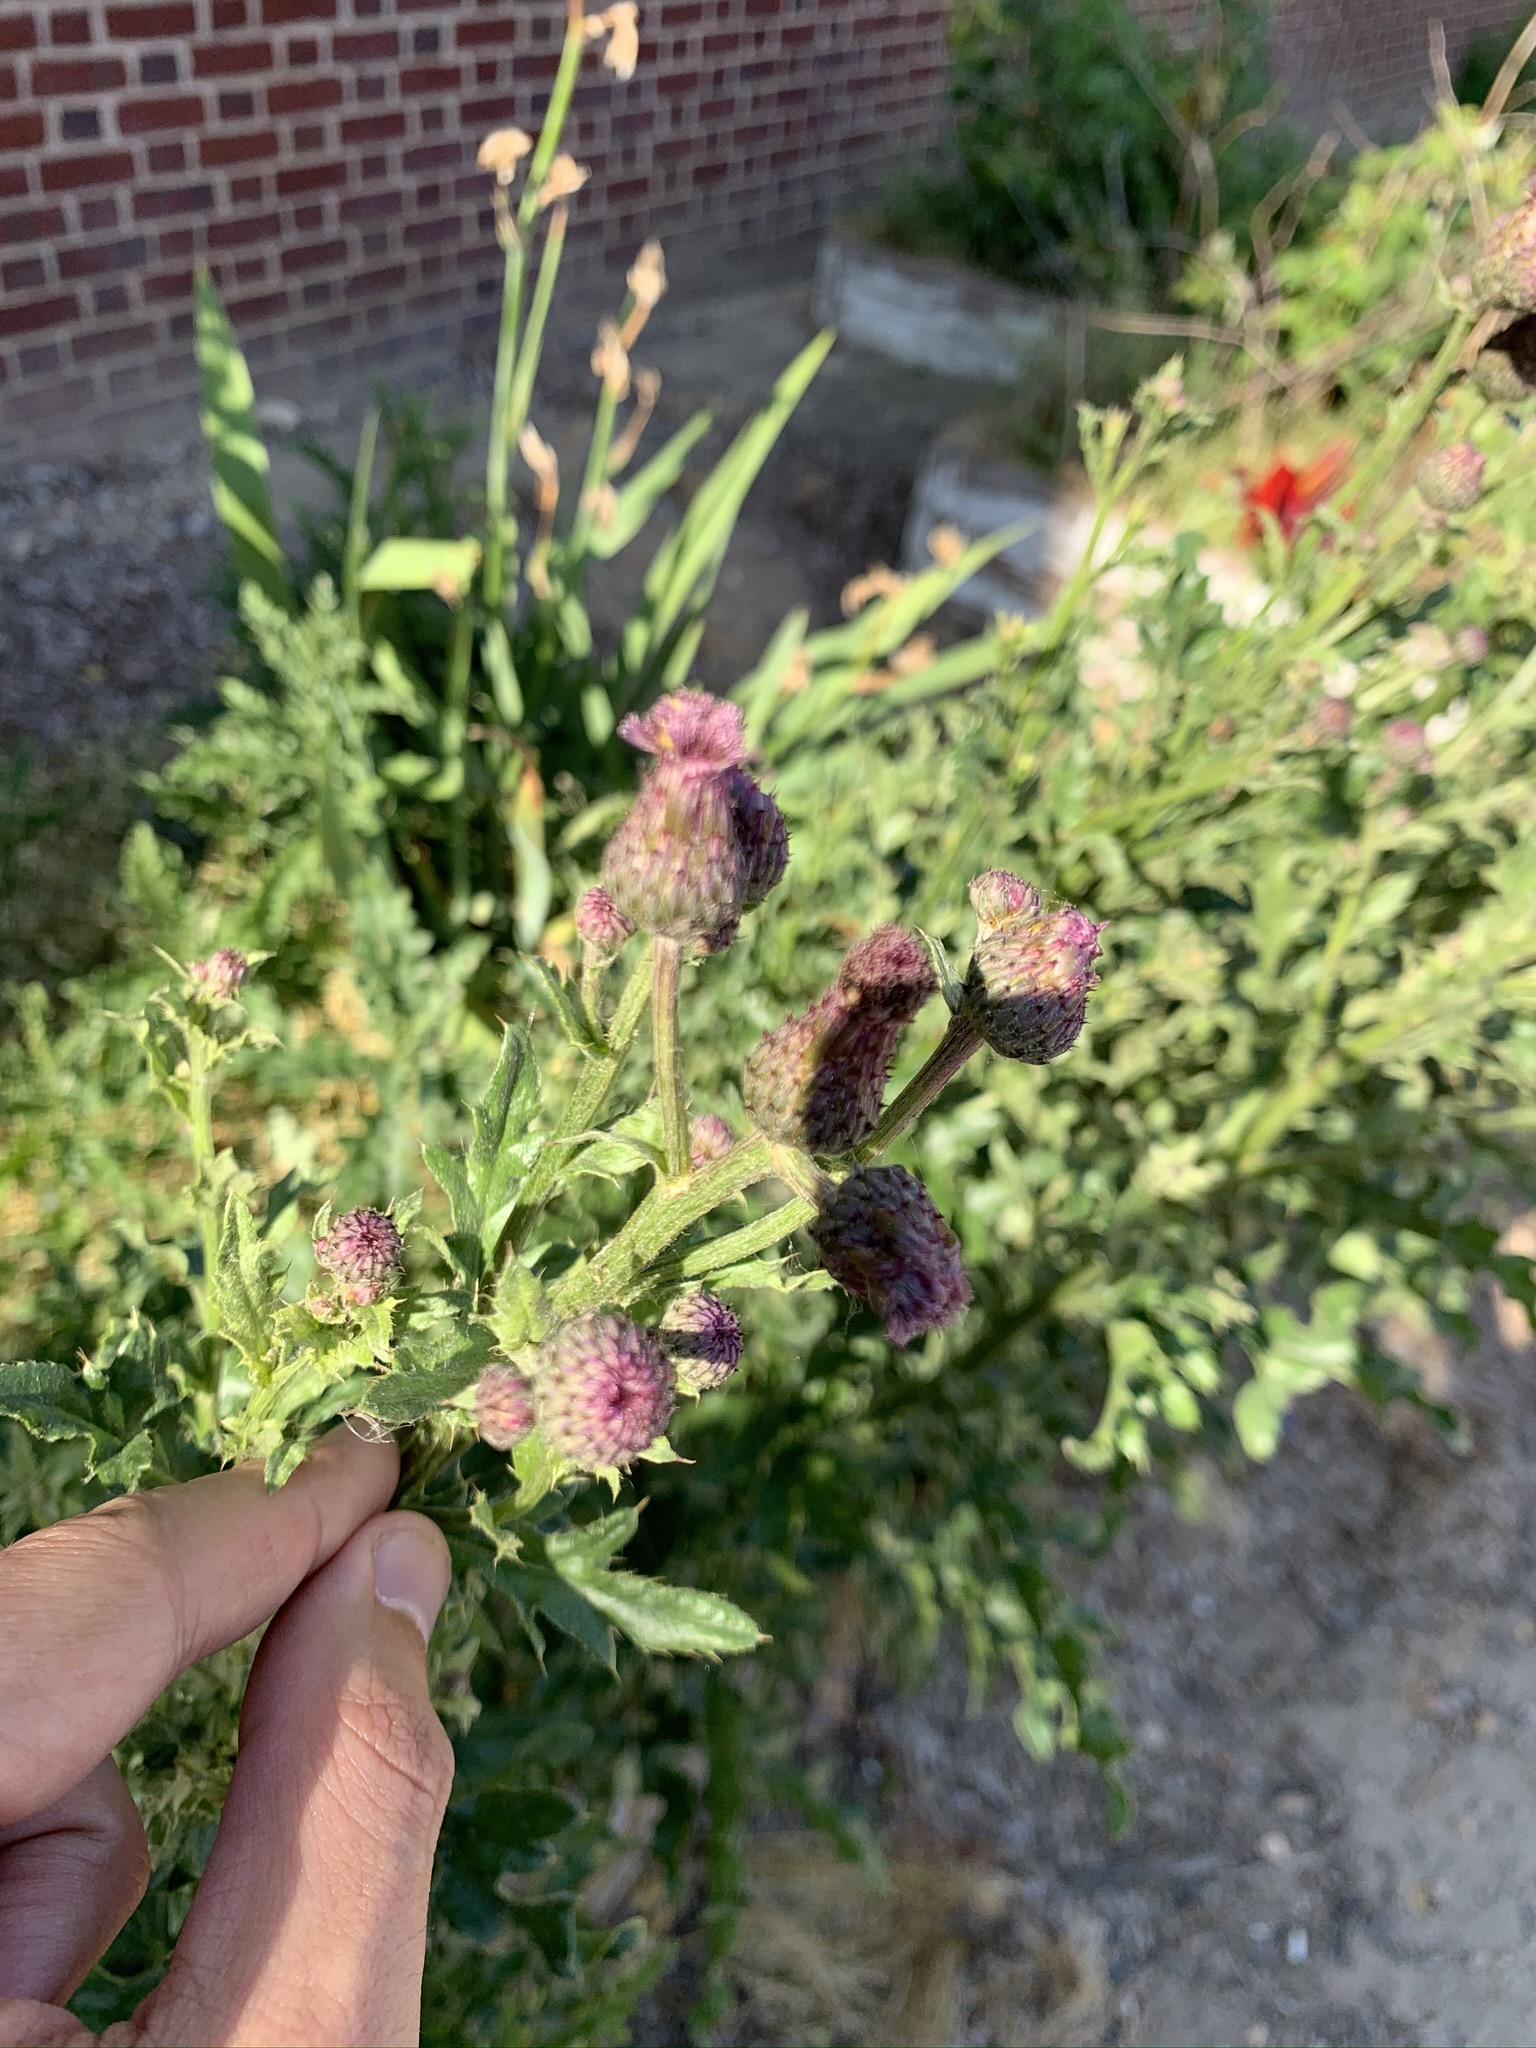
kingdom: Plantae
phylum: Tracheophyta
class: Magnoliopsida
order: Asterales
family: Asteraceae
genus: Cirsium
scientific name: Cirsium arvense
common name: Creeping thistle
